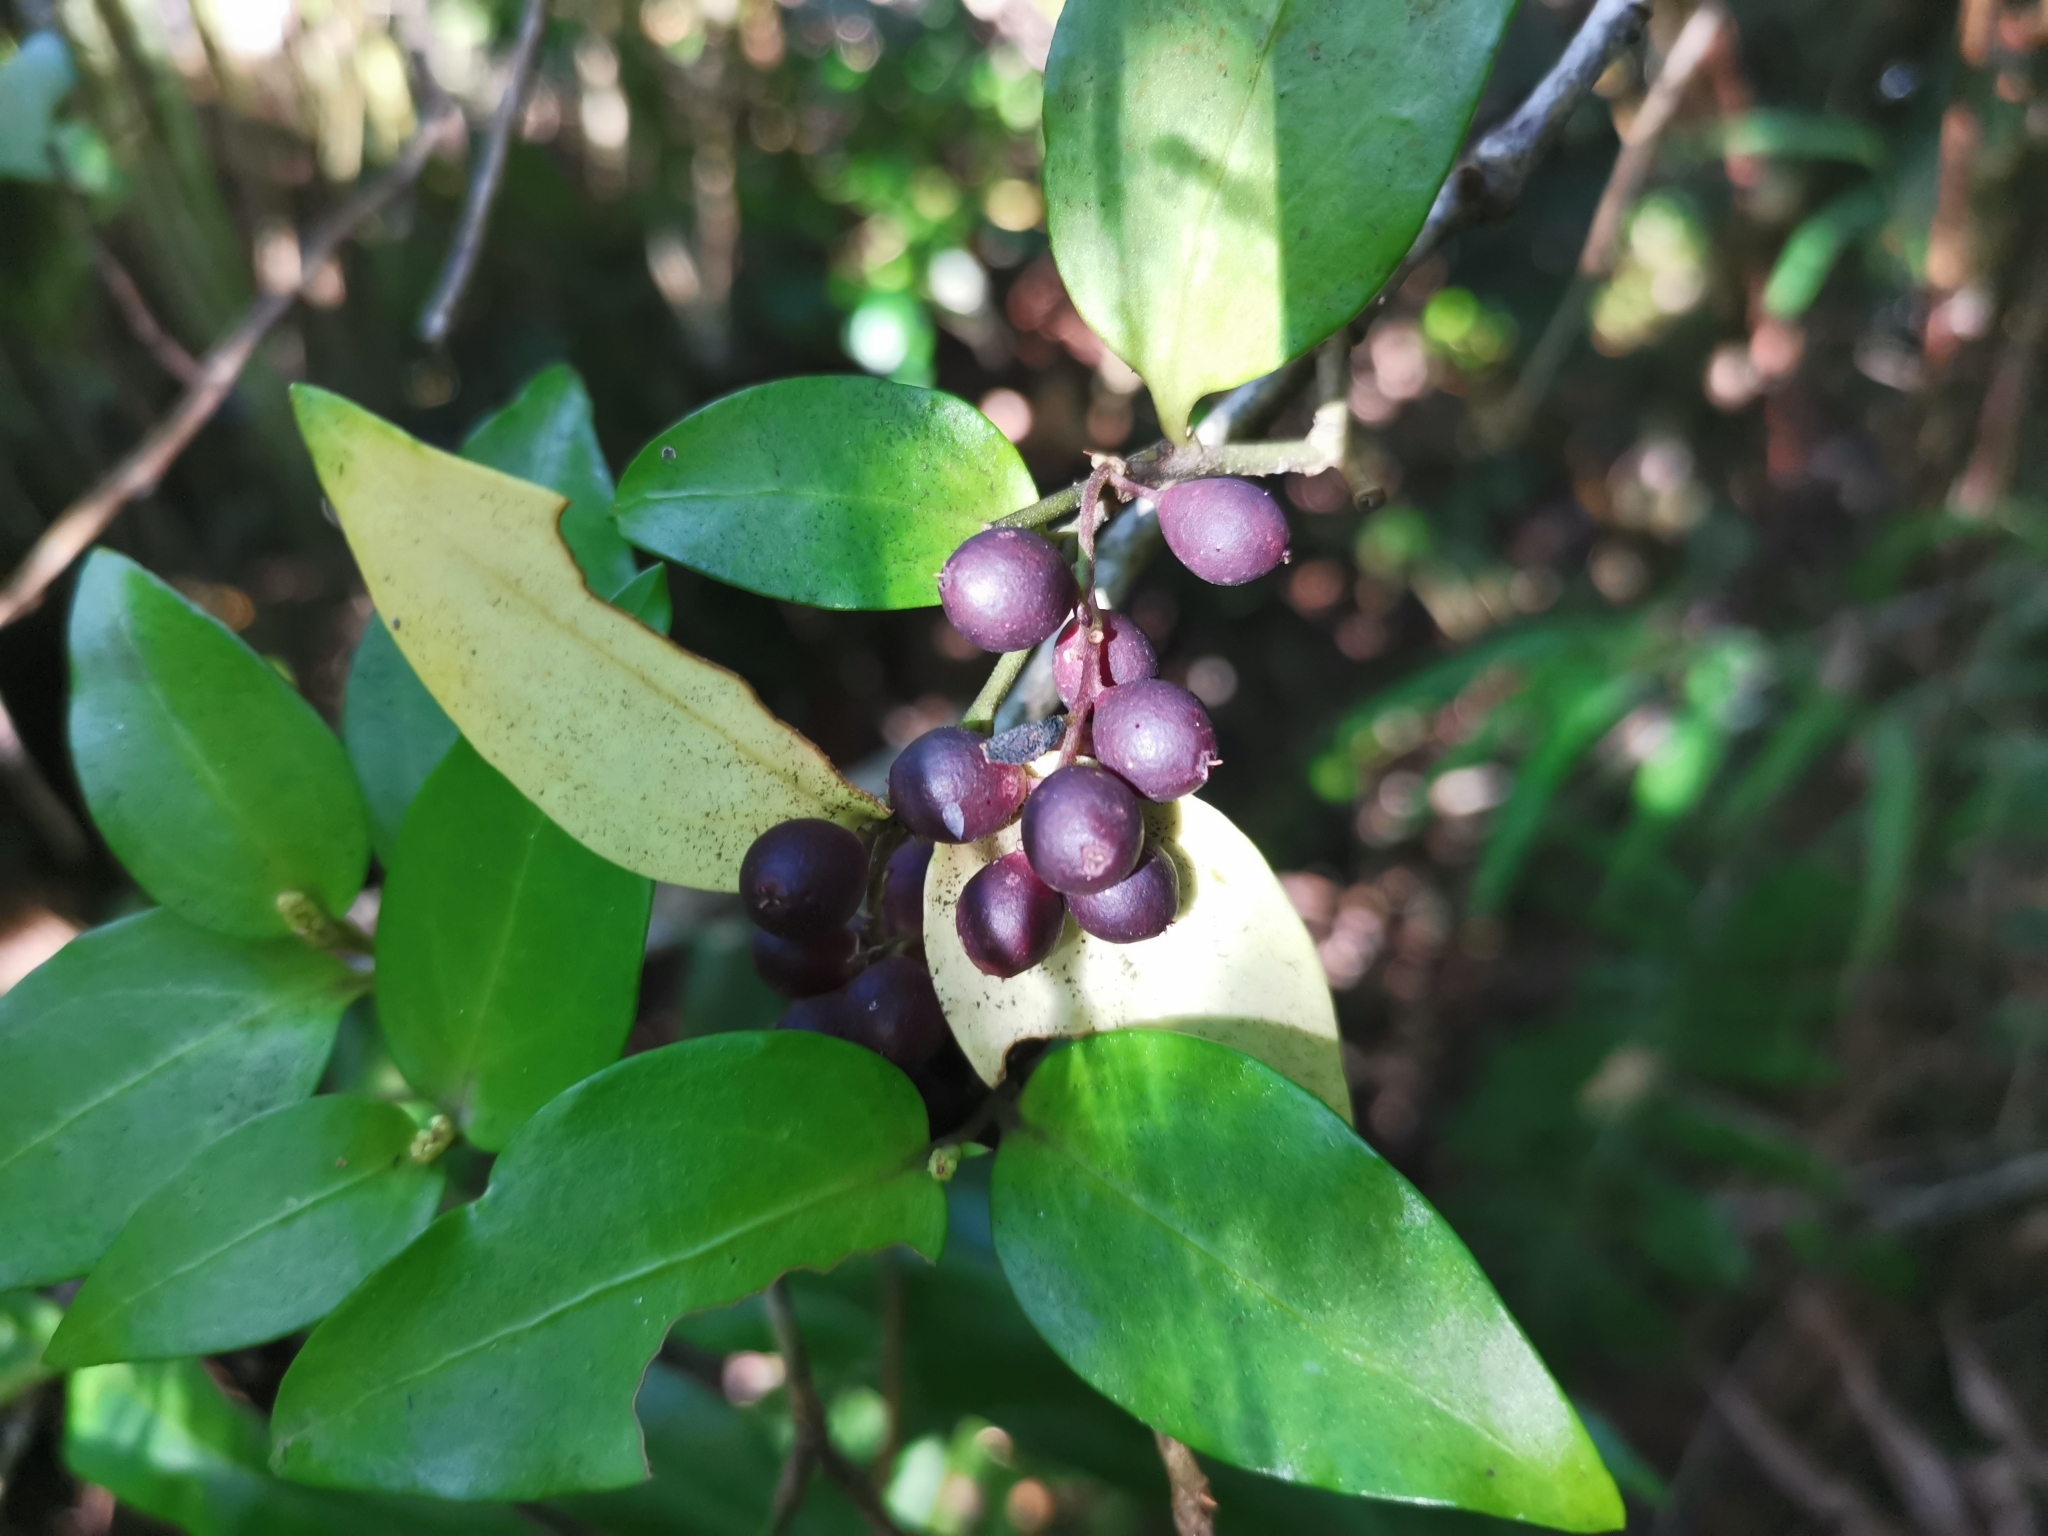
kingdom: Plantae
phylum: Tracheophyta
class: Magnoliopsida
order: Apiales
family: Griseliniaceae
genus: Griselinia
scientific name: Griselinia racemosa
